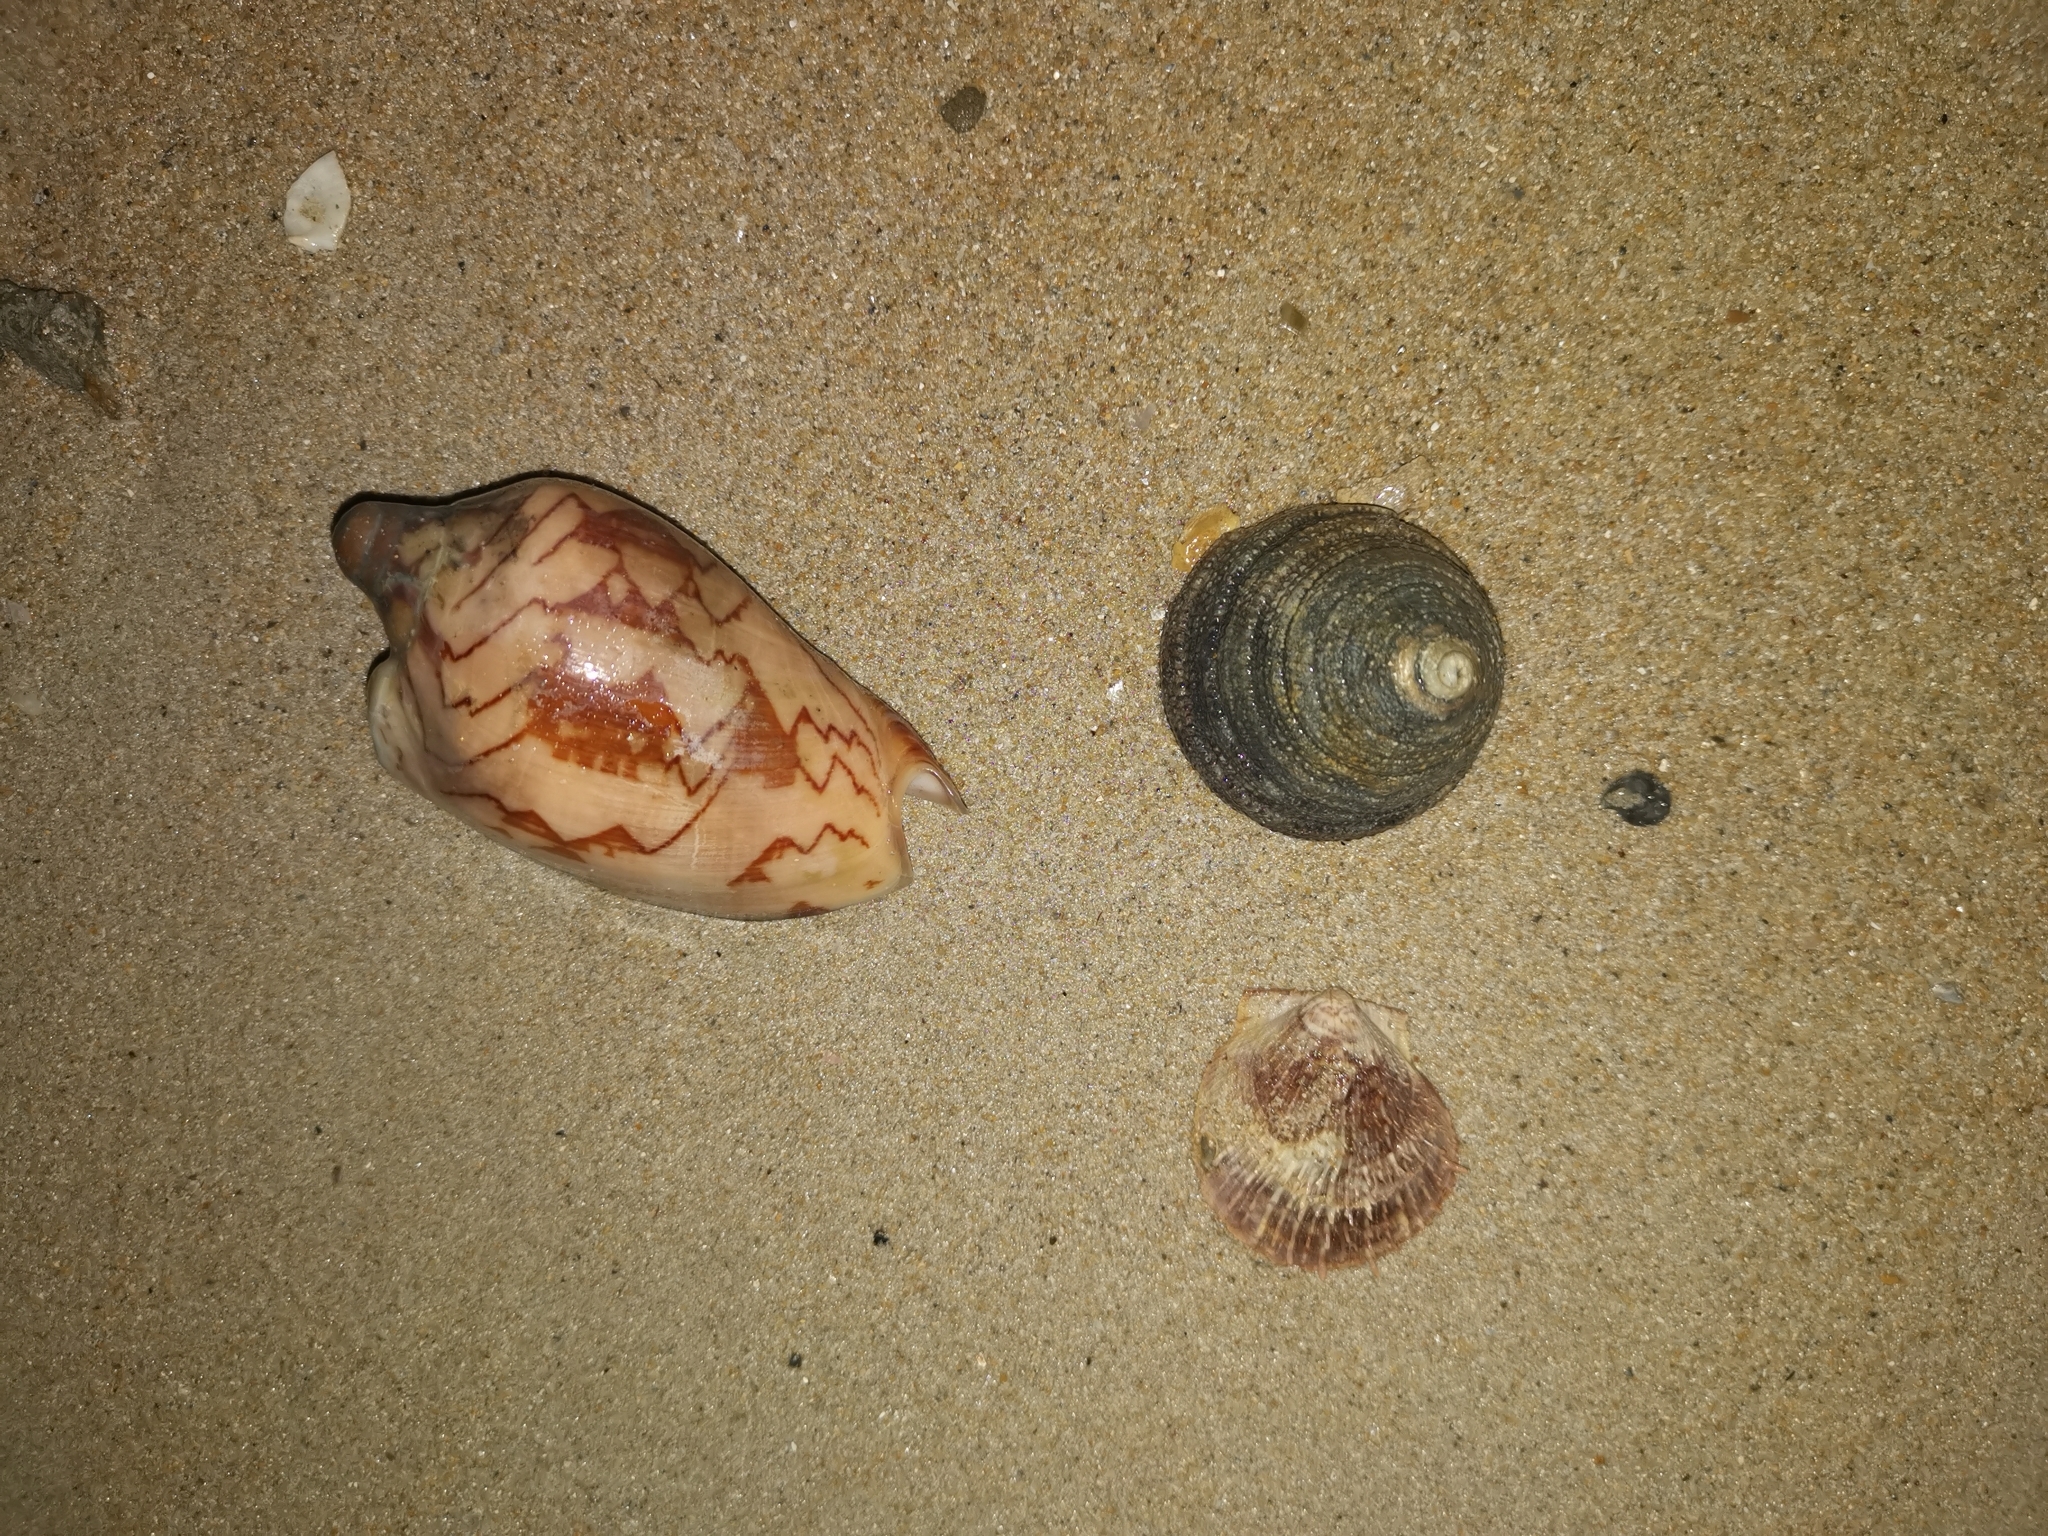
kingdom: Animalia
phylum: Mollusca
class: Gastropoda
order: Neogastropoda
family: Volutidae
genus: Cymbiola
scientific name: Cymbiola nobilis
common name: Noble volute
